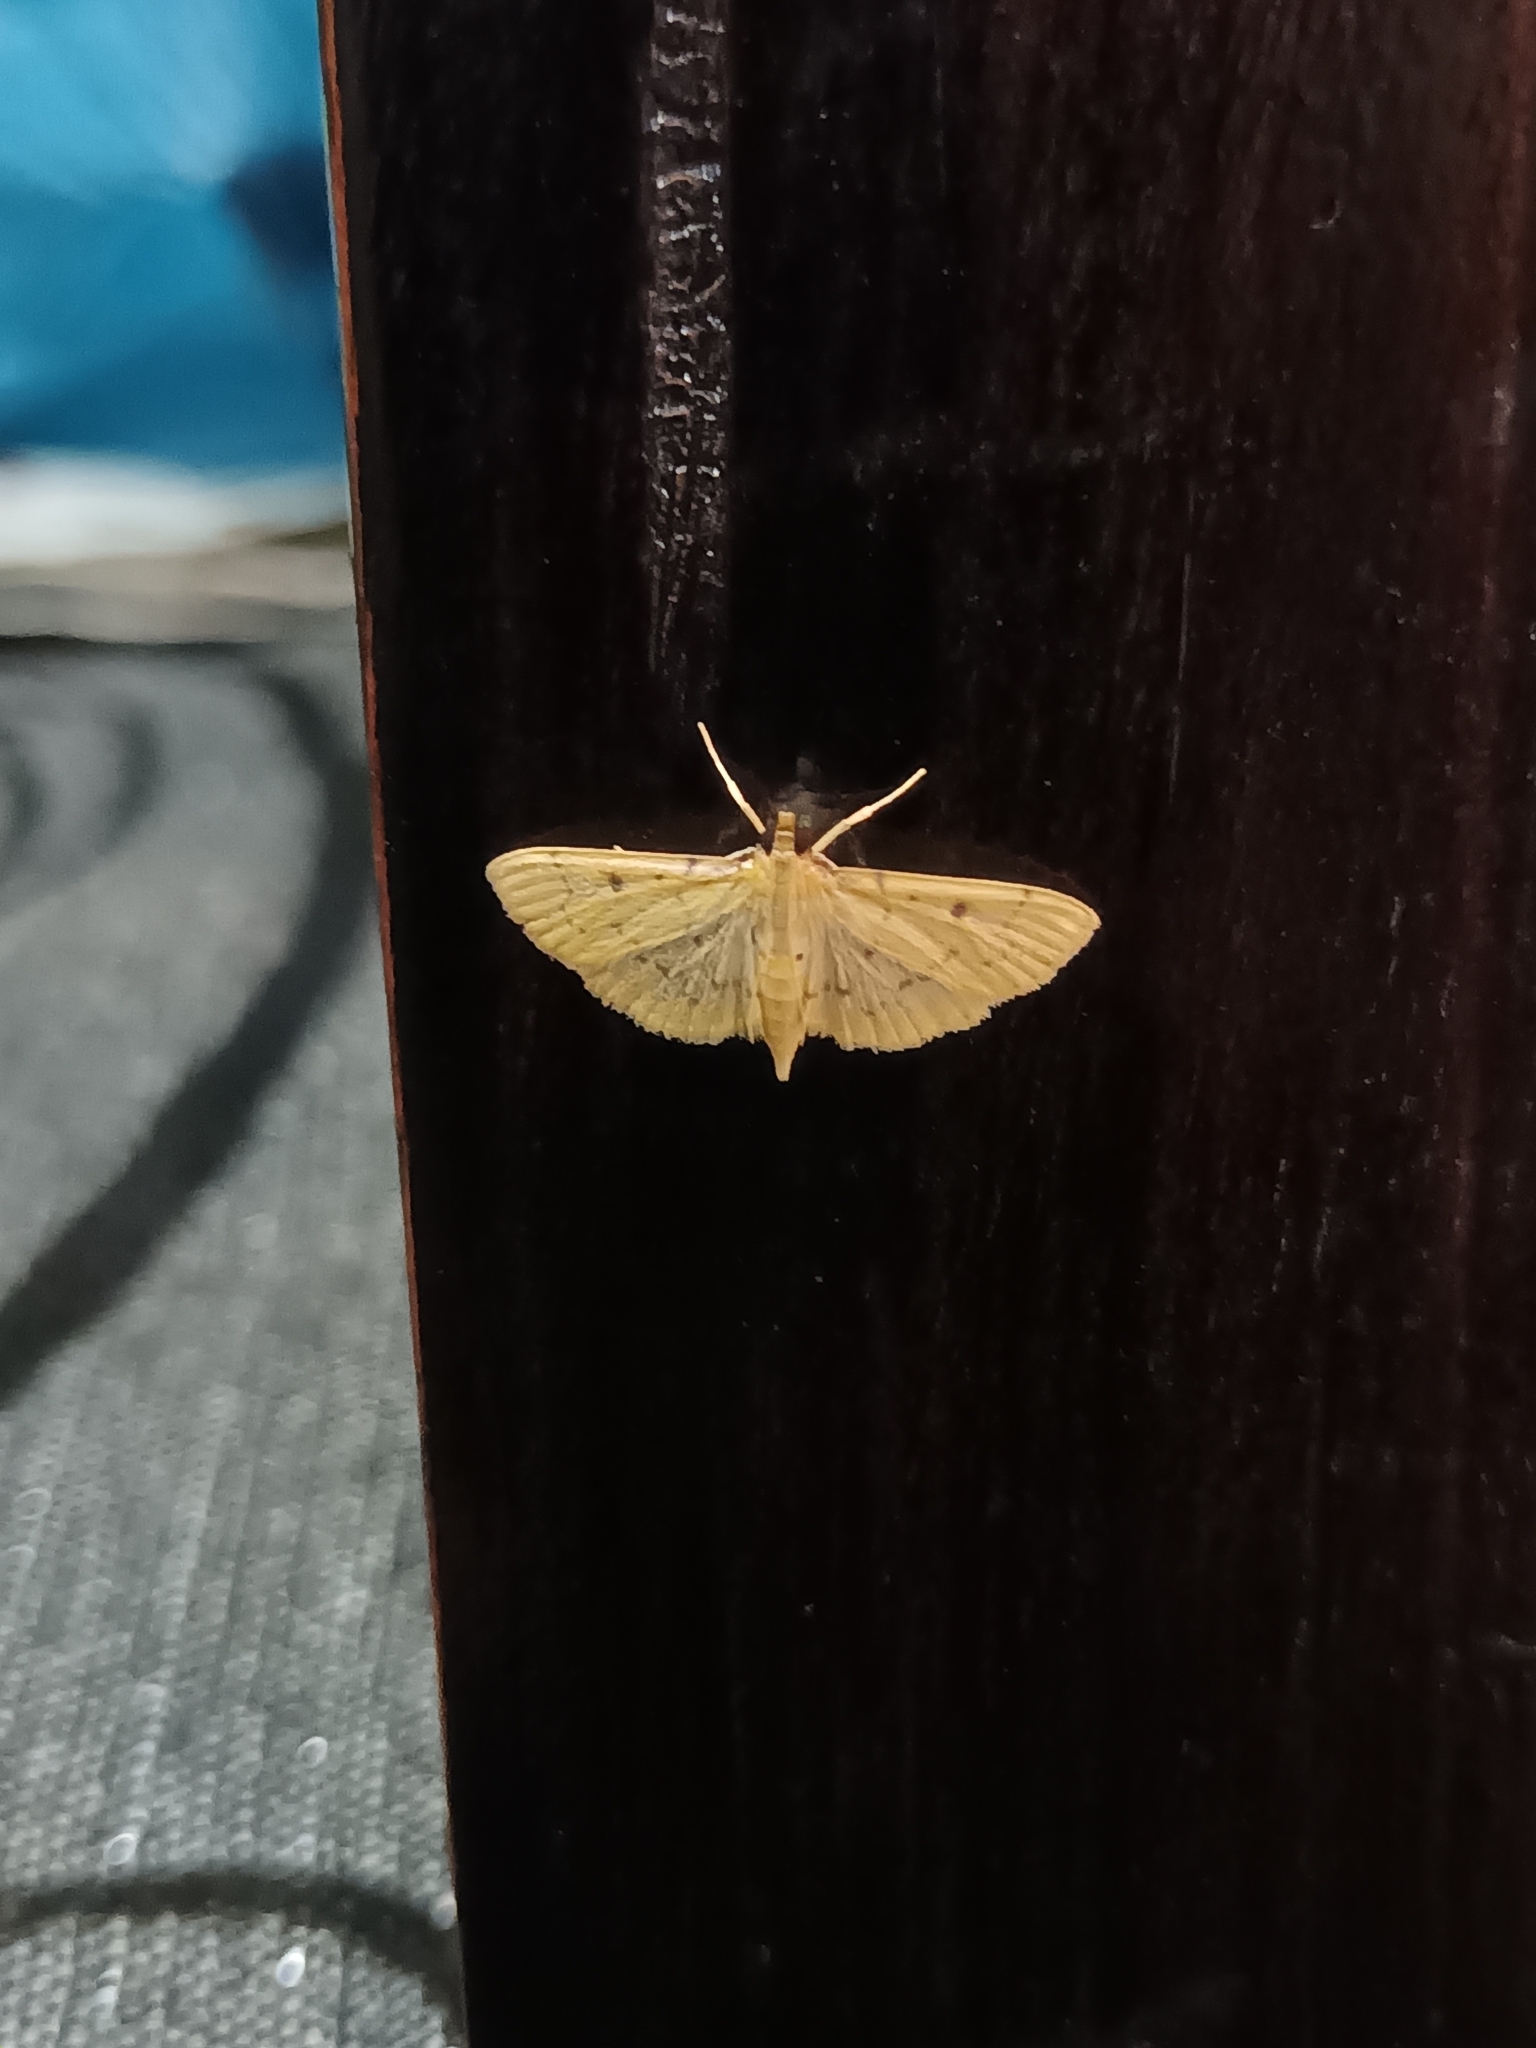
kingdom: Animalia
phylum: Arthropoda
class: Insecta
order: Lepidoptera
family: Crambidae
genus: Herpetogramma
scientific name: Herpetogramma basalis
